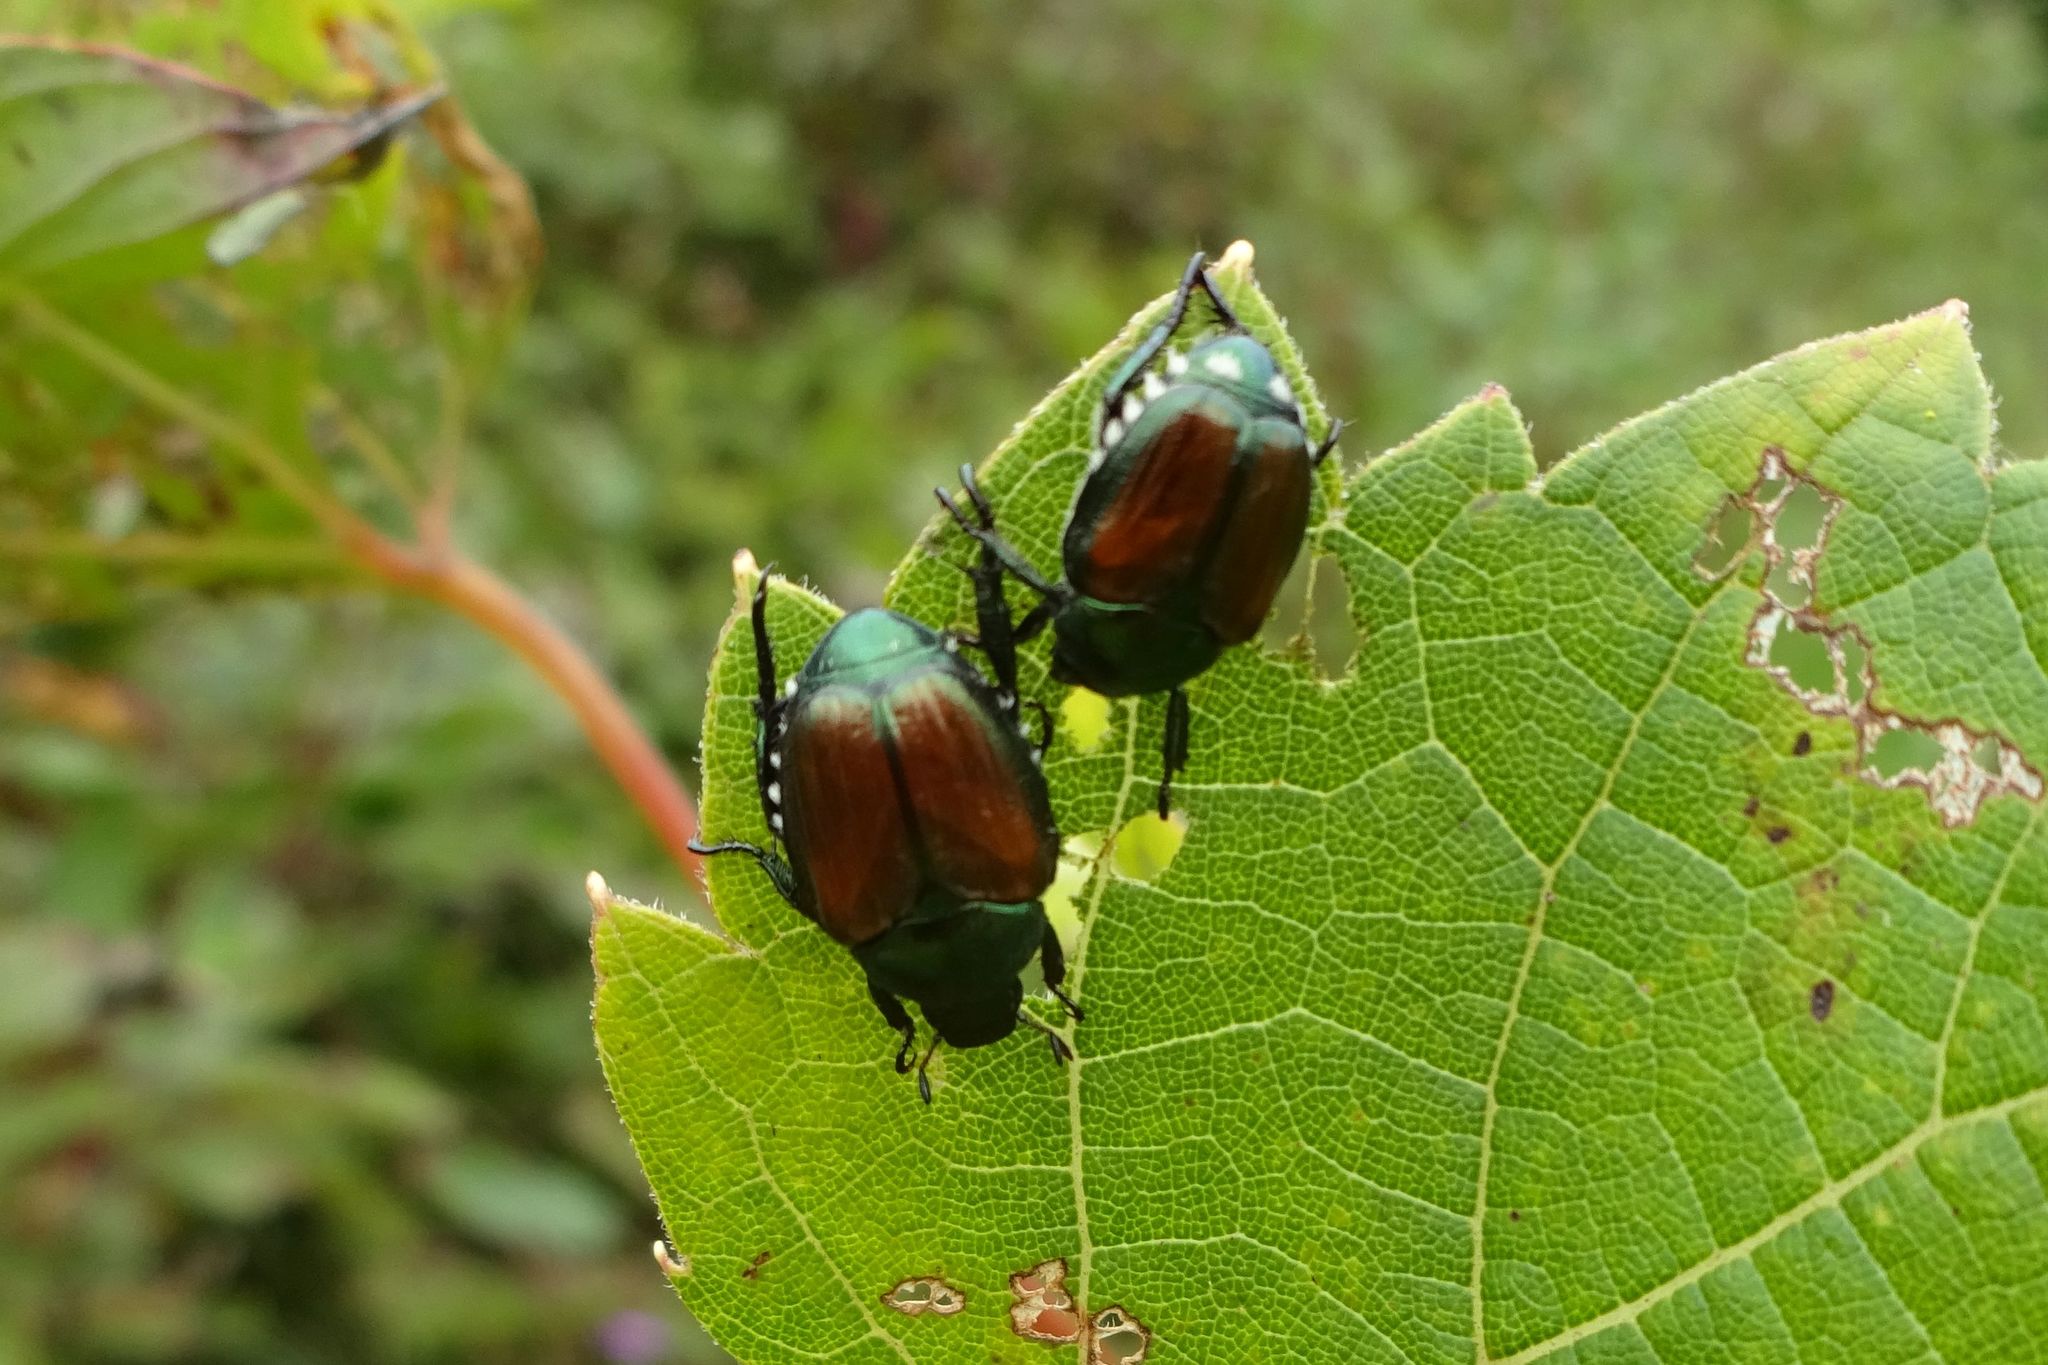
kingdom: Animalia
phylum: Arthropoda
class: Insecta
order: Coleoptera
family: Scarabaeidae
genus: Popillia
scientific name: Popillia japonica
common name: Japanese beetle
